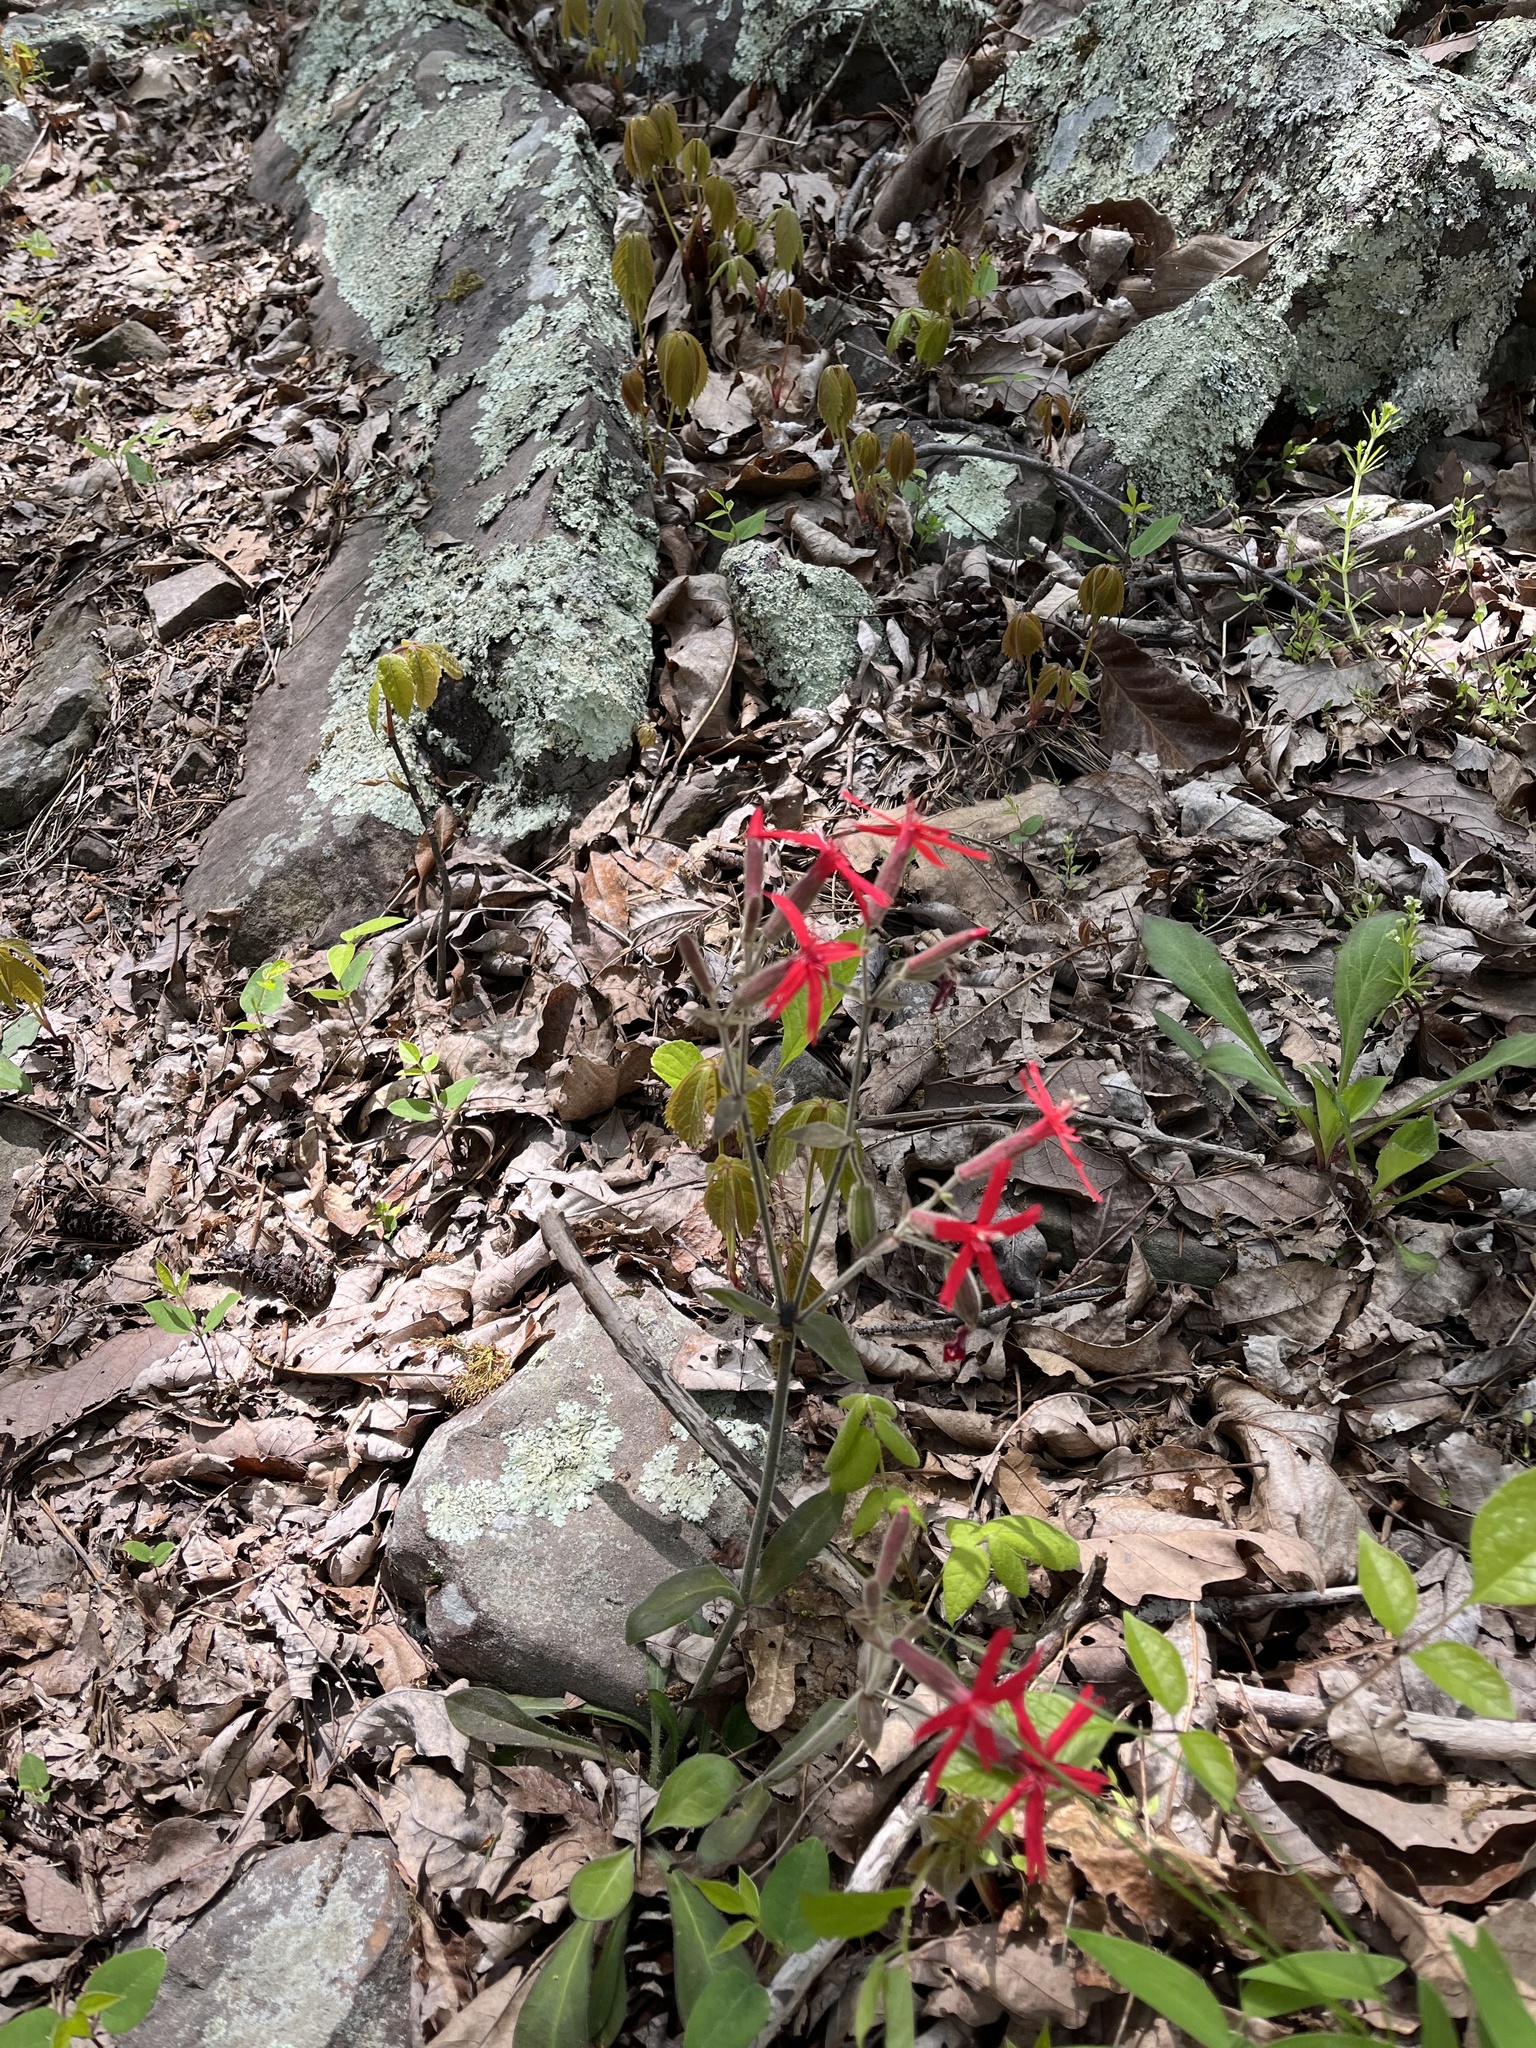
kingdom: Plantae
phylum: Tracheophyta
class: Magnoliopsida
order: Caryophyllales
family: Caryophyllaceae
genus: Silene
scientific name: Silene virginica
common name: Fire-pink
